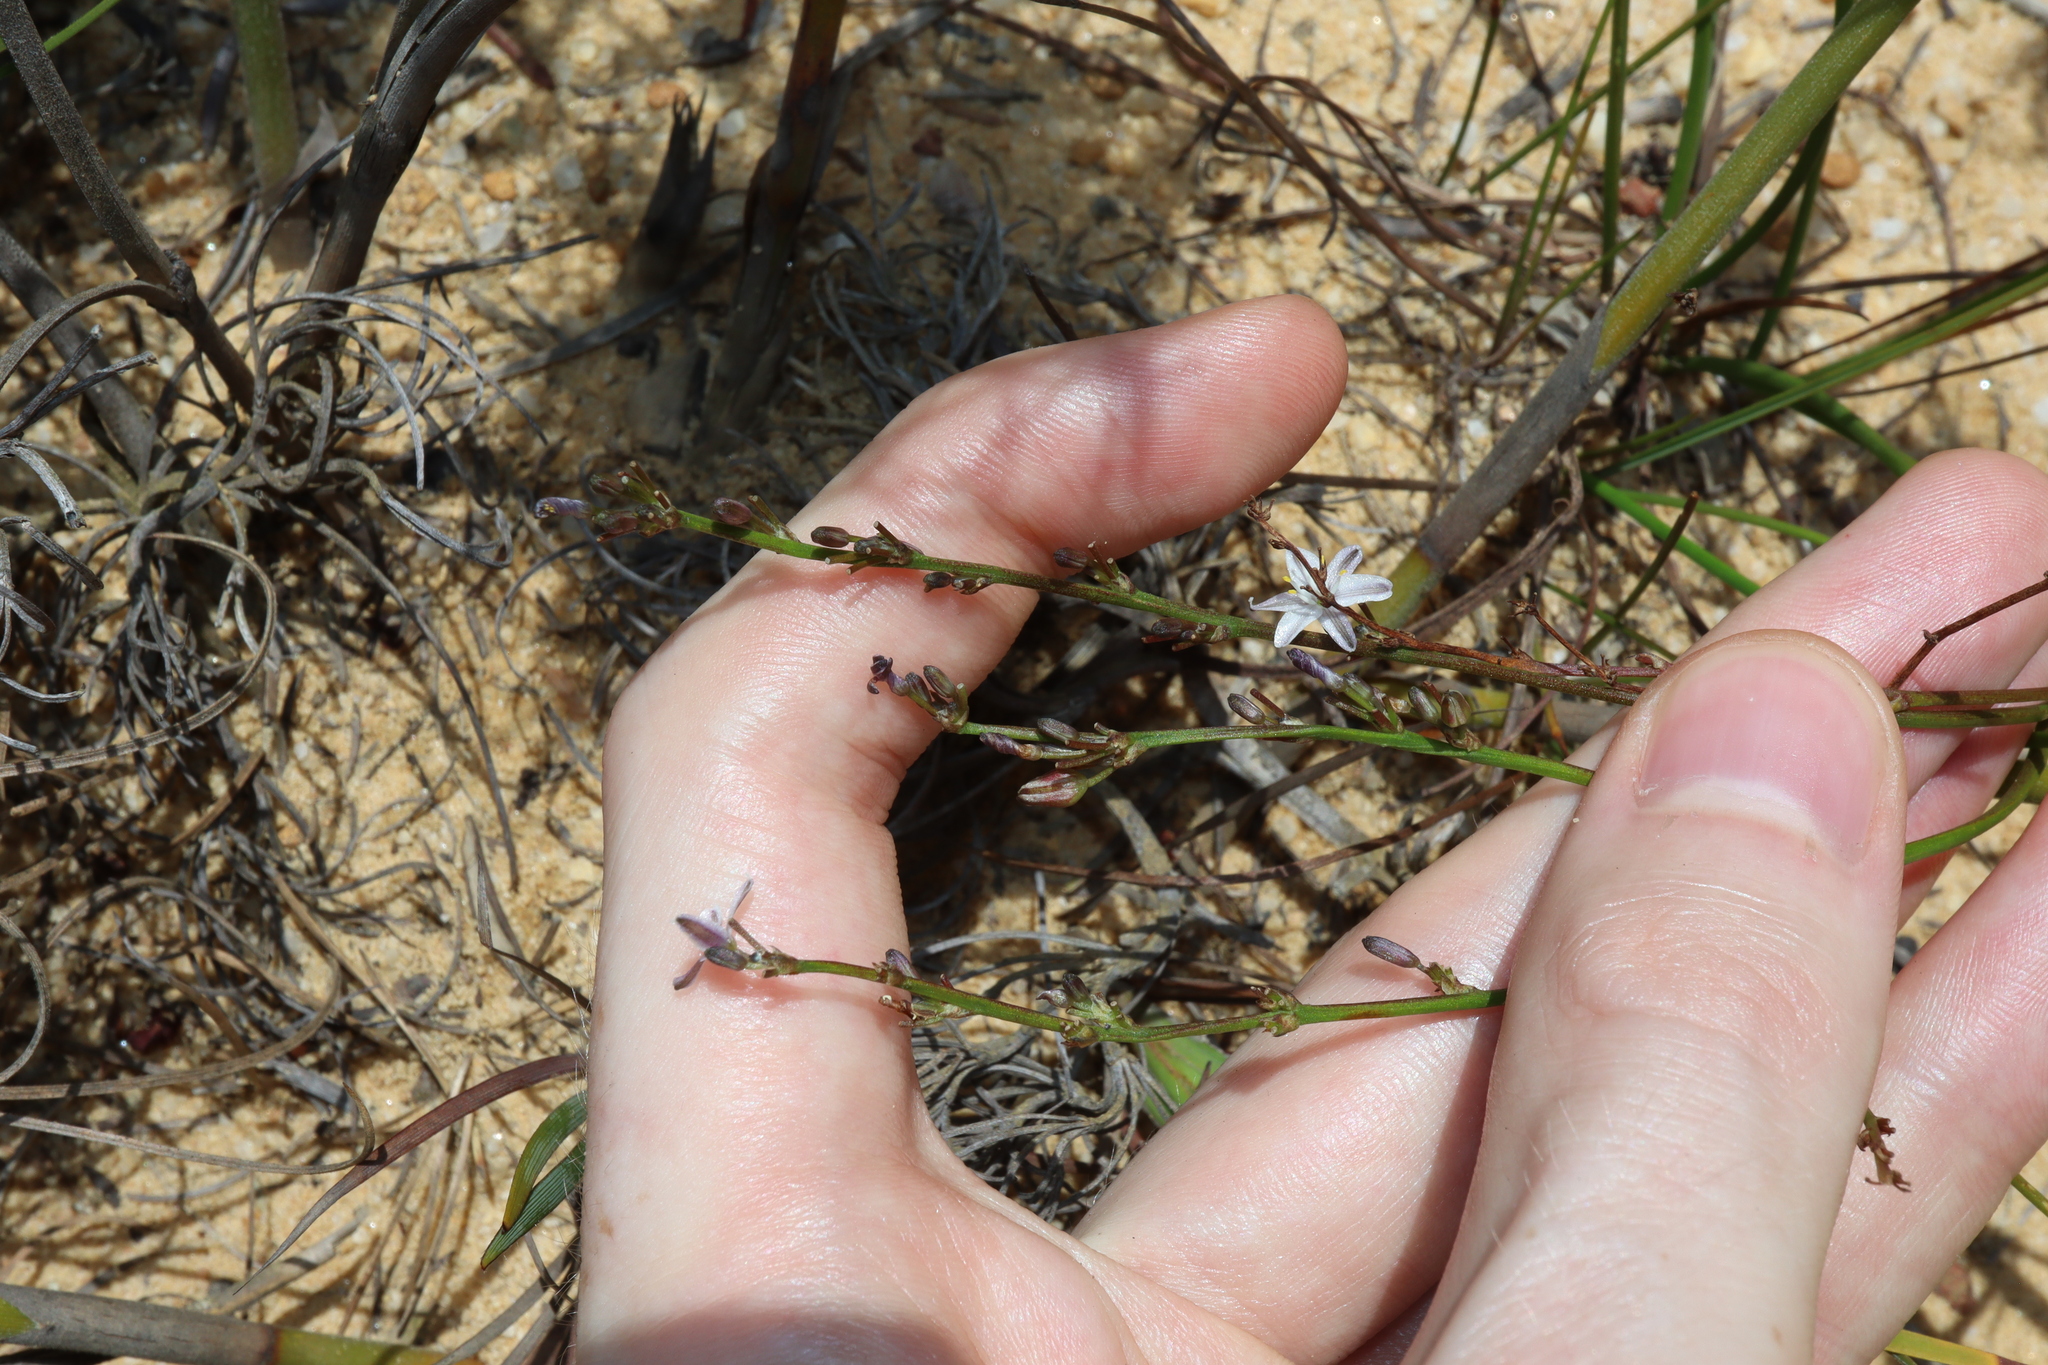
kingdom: Plantae
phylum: Tracheophyta
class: Liliopsida
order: Asparagales
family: Asphodelaceae
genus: Caesia
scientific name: Caesia parviflora
